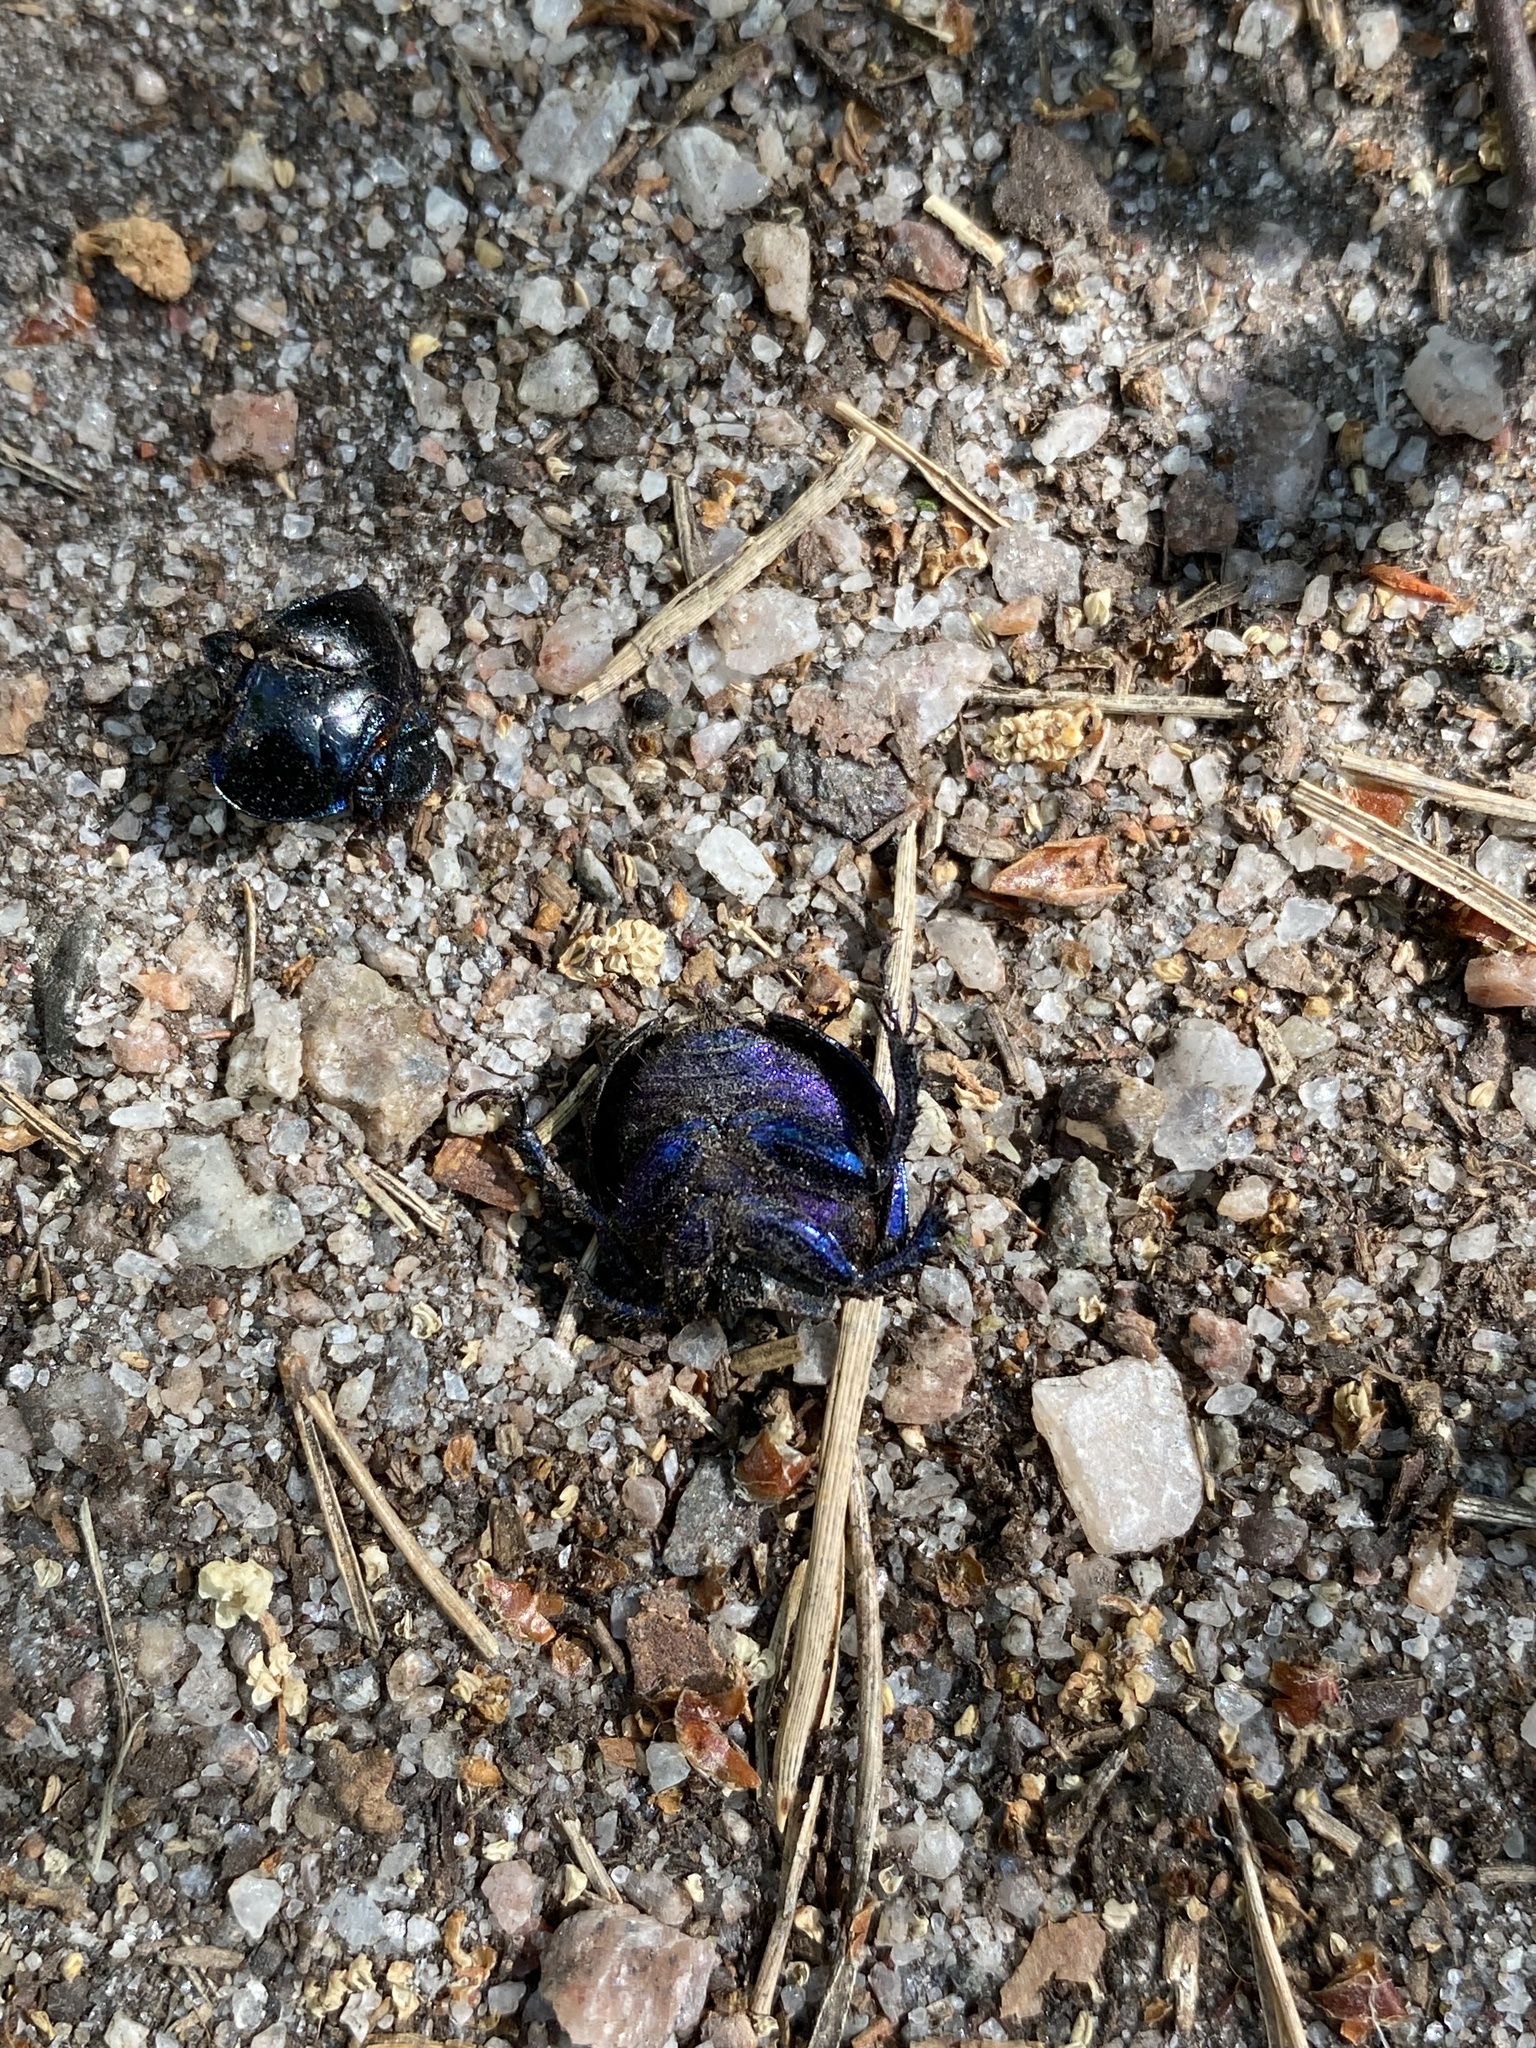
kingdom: Animalia
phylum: Arthropoda
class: Insecta
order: Coleoptera
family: Geotrupidae
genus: Anoplotrupes
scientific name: Anoplotrupes stercorosus
